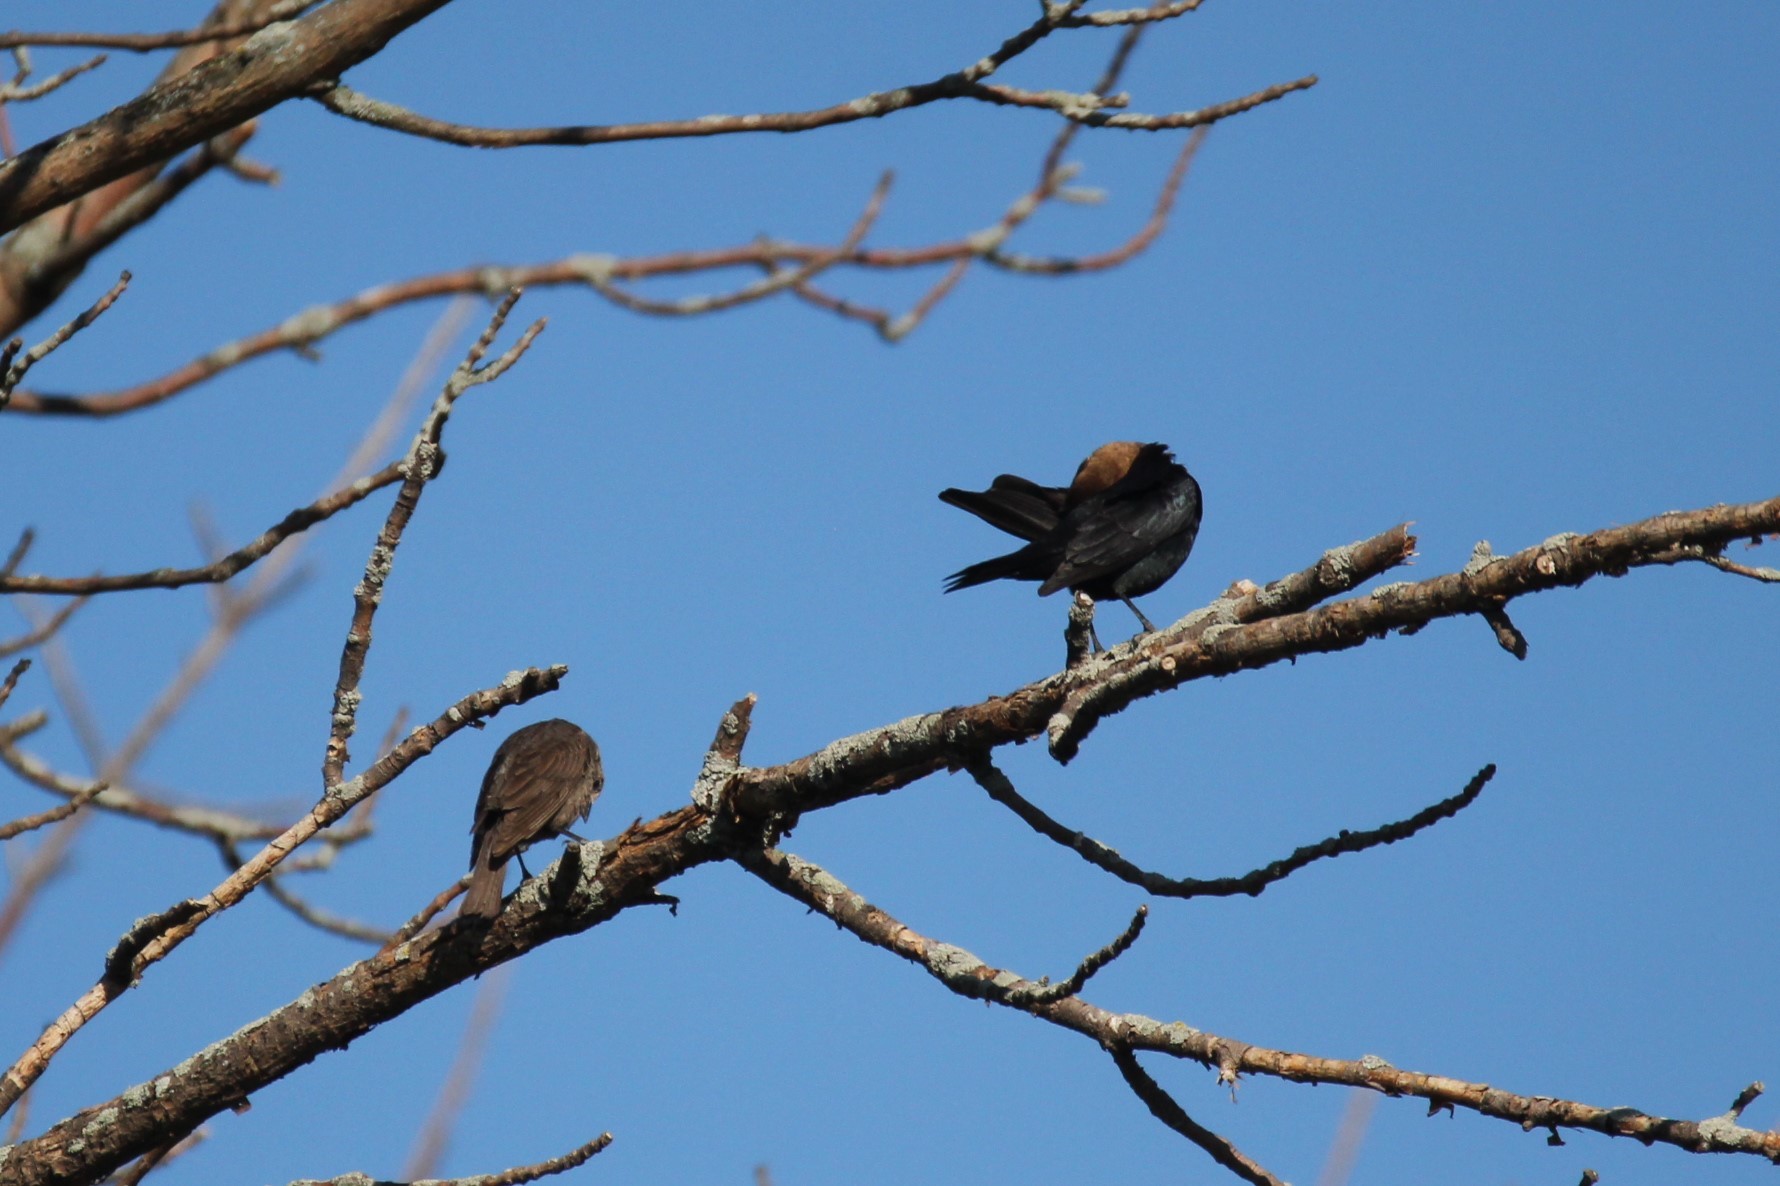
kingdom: Animalia
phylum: Chordata
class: Aves
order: Passeriformes
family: Icteridae
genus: Molothrus
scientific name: Molothrus ater
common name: Brown-headed cowbird
